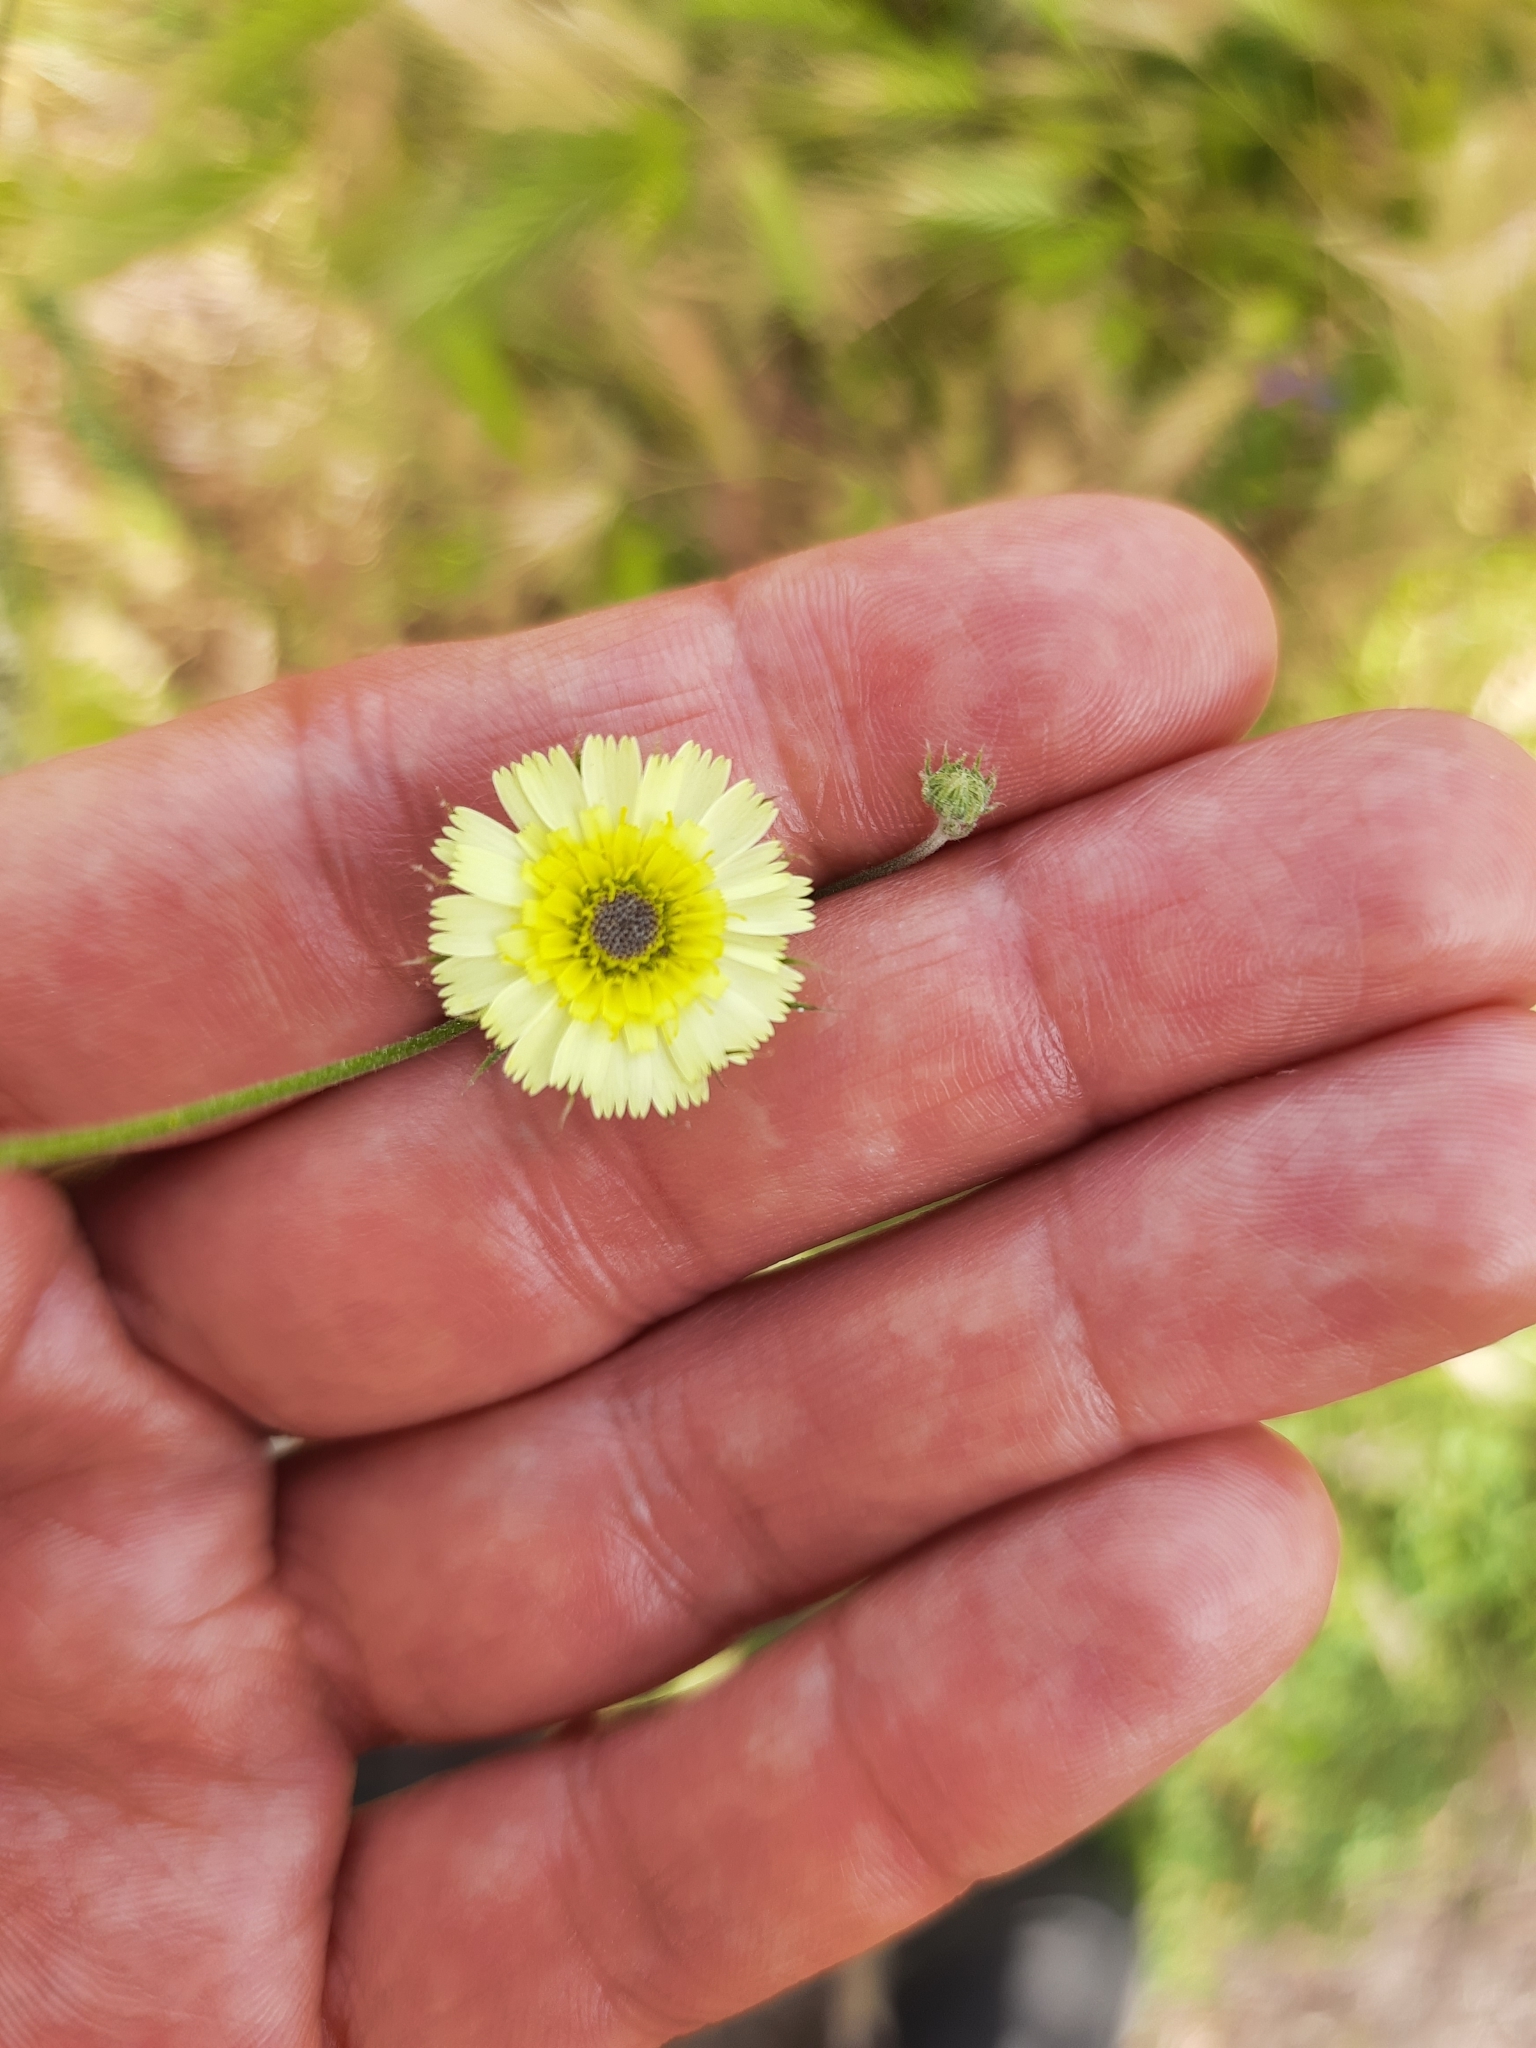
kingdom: Plantae
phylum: Tracheophyta
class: Magnoliopsida
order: Asterales
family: Asteraceae
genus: Tolpis
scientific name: Tolpis barbata
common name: Yellow hawkweed
